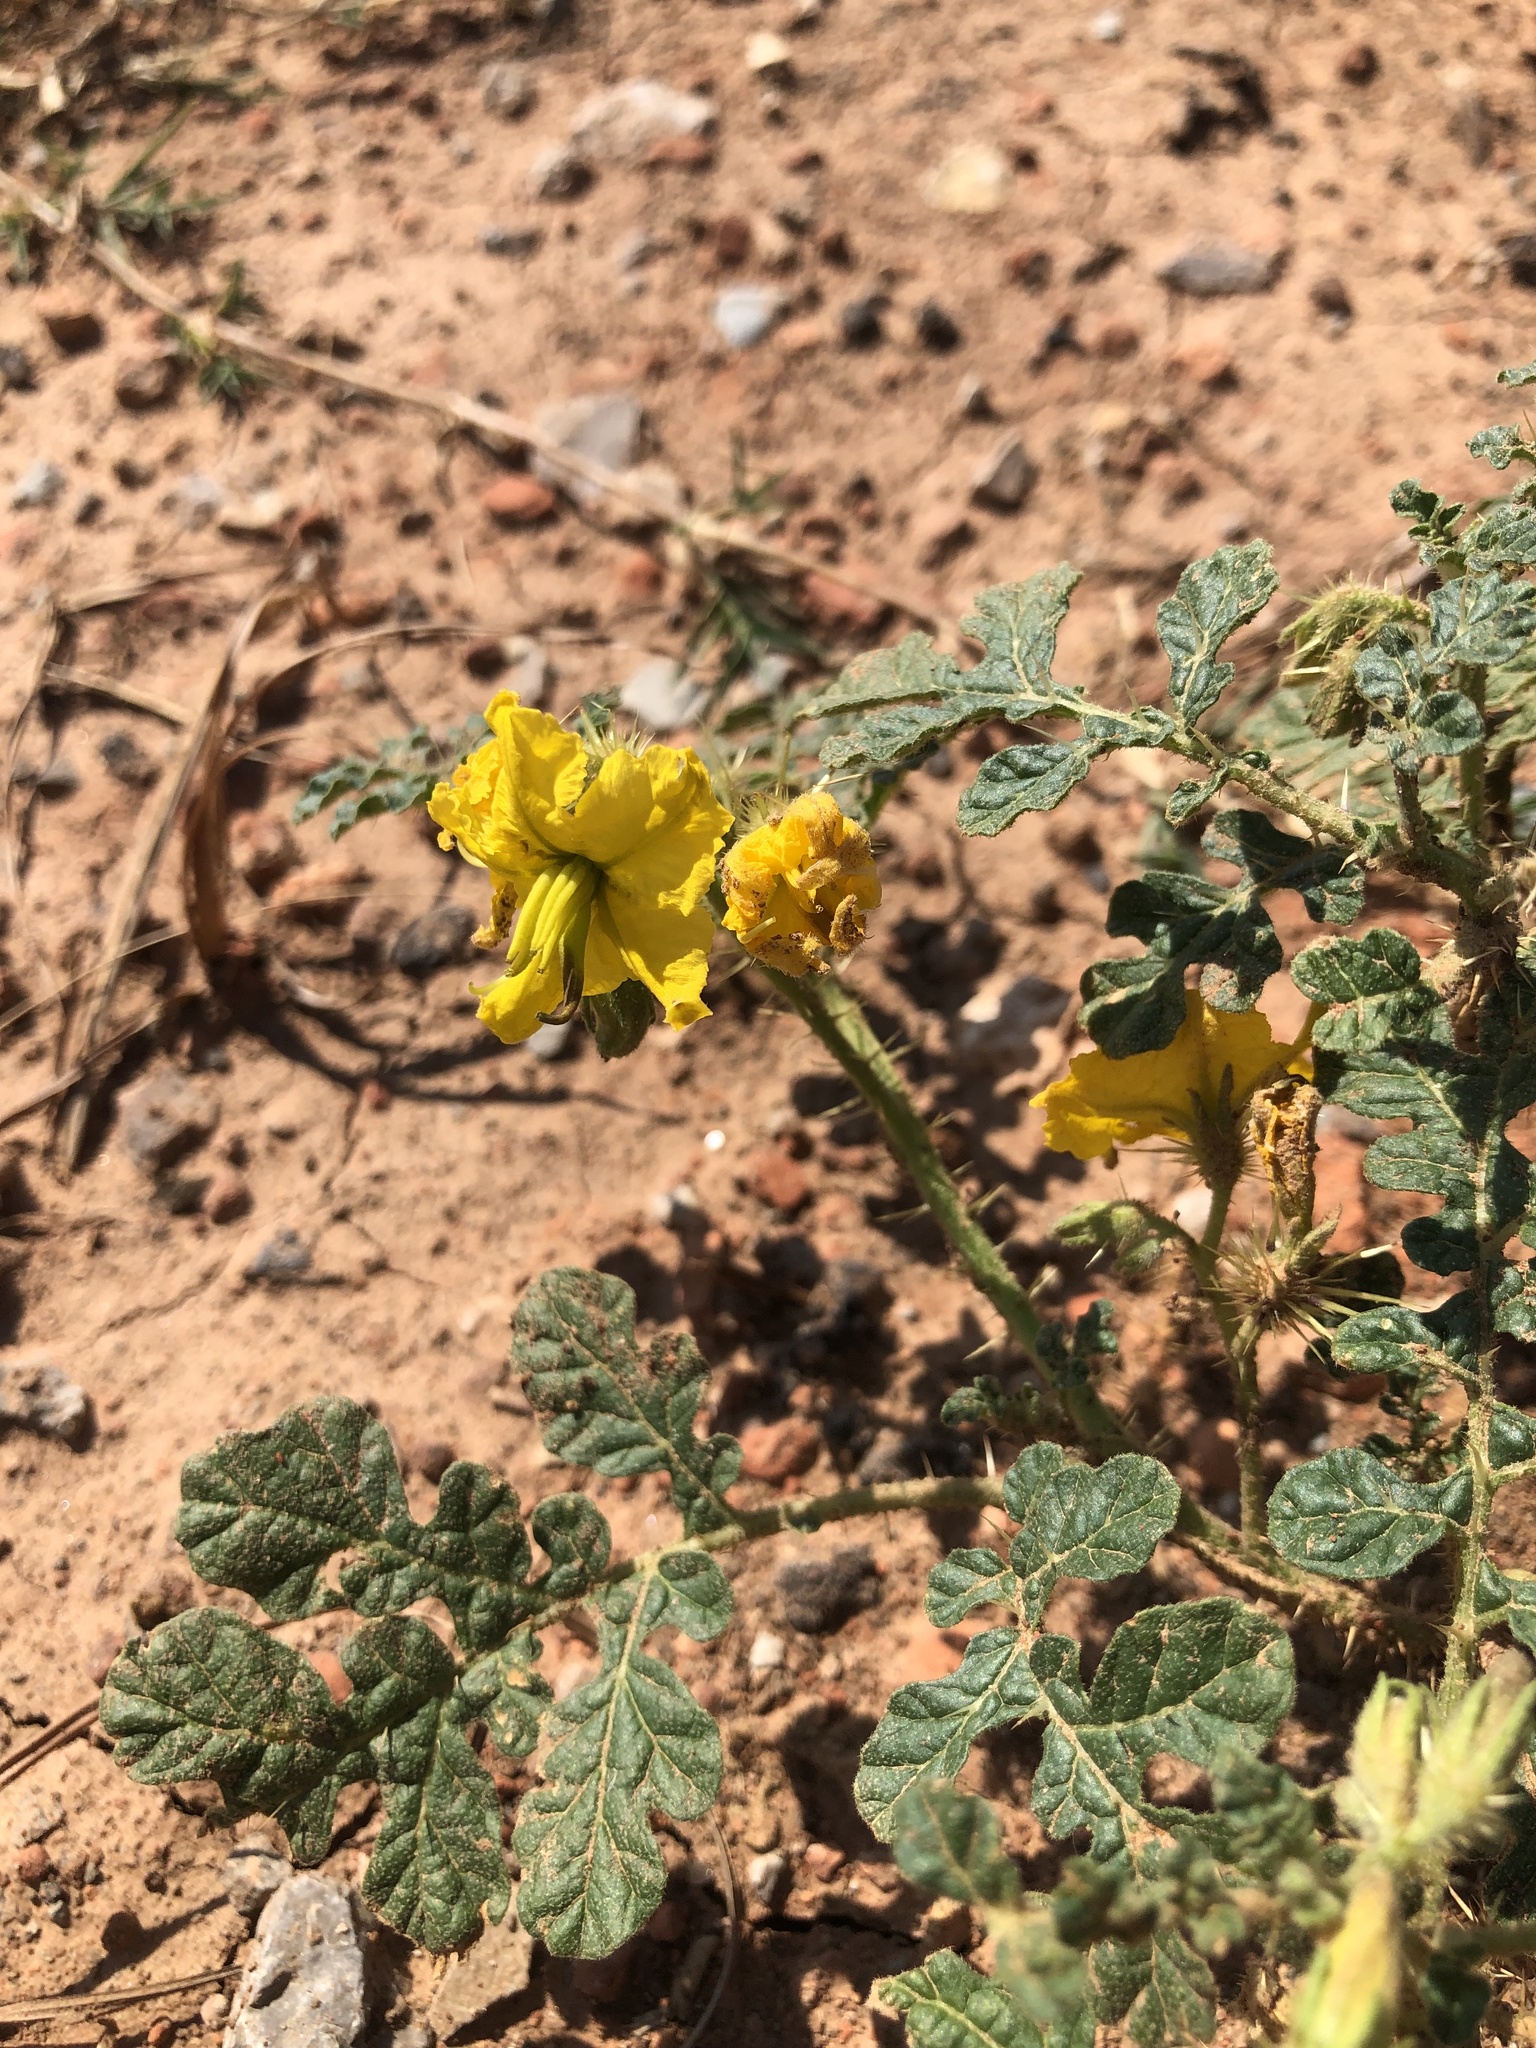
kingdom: Plantae
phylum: Tracheophyta
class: Magnoliopsida
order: Solanales
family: Solanaceae
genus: Solanum
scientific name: Solanum angustifolium
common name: Buffalobur nightshade
